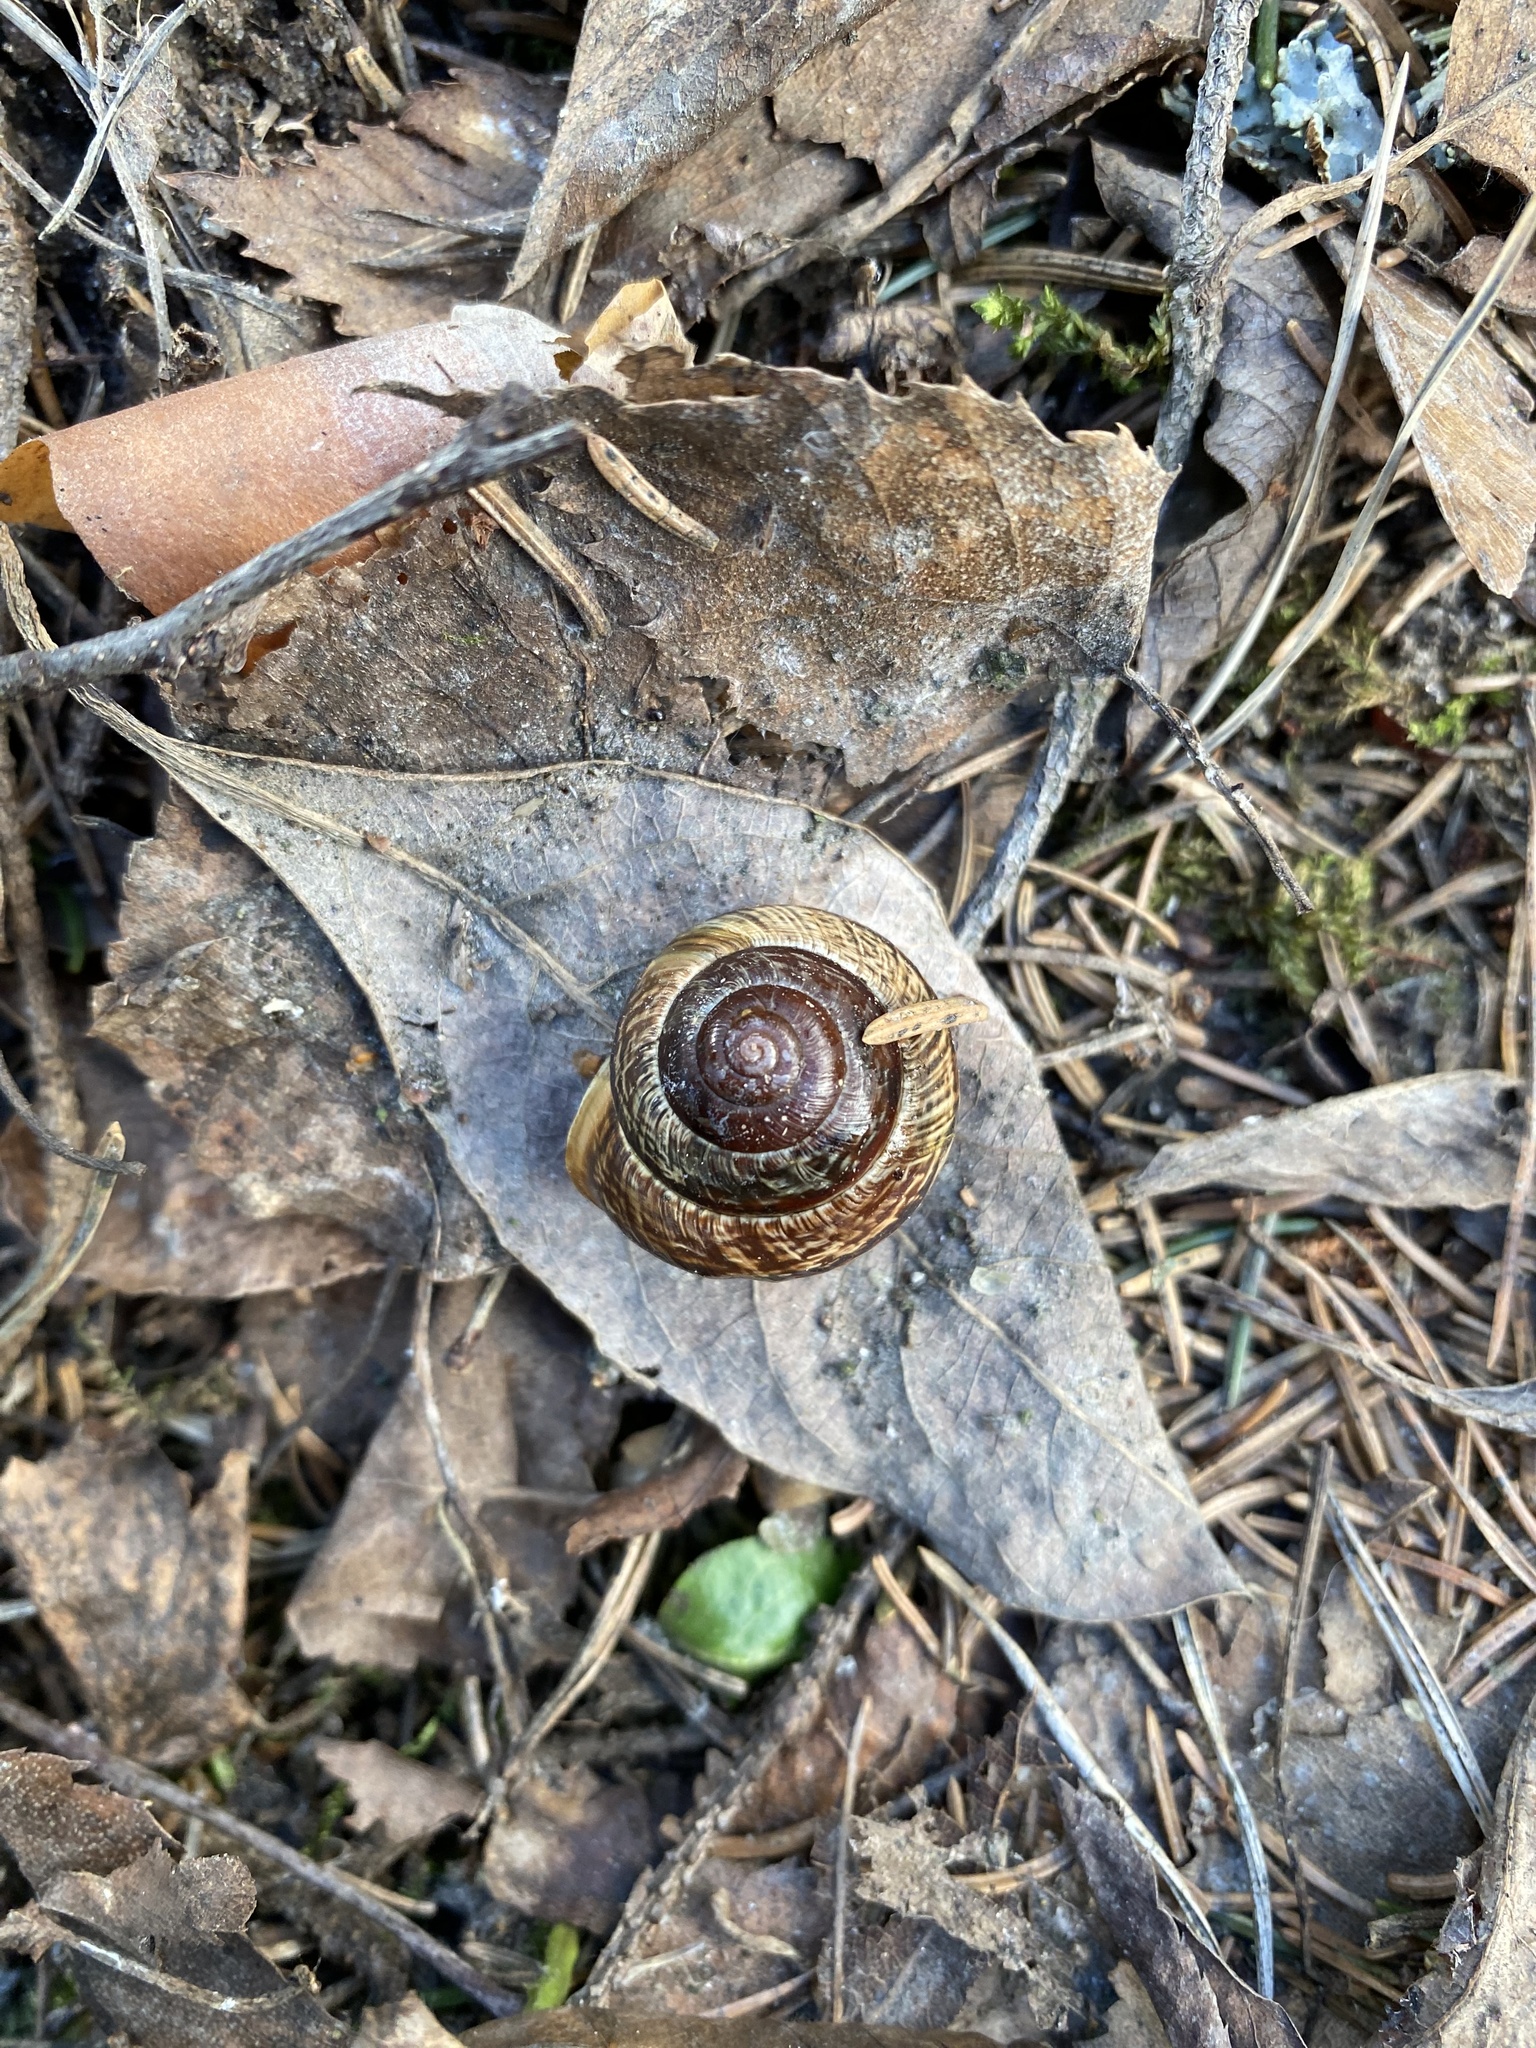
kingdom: Animalia
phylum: Mollusca
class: Gastropoda
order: Stylommatophora
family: Helicidae
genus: Arianta
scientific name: Arianta arbustorum
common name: Copse snail
